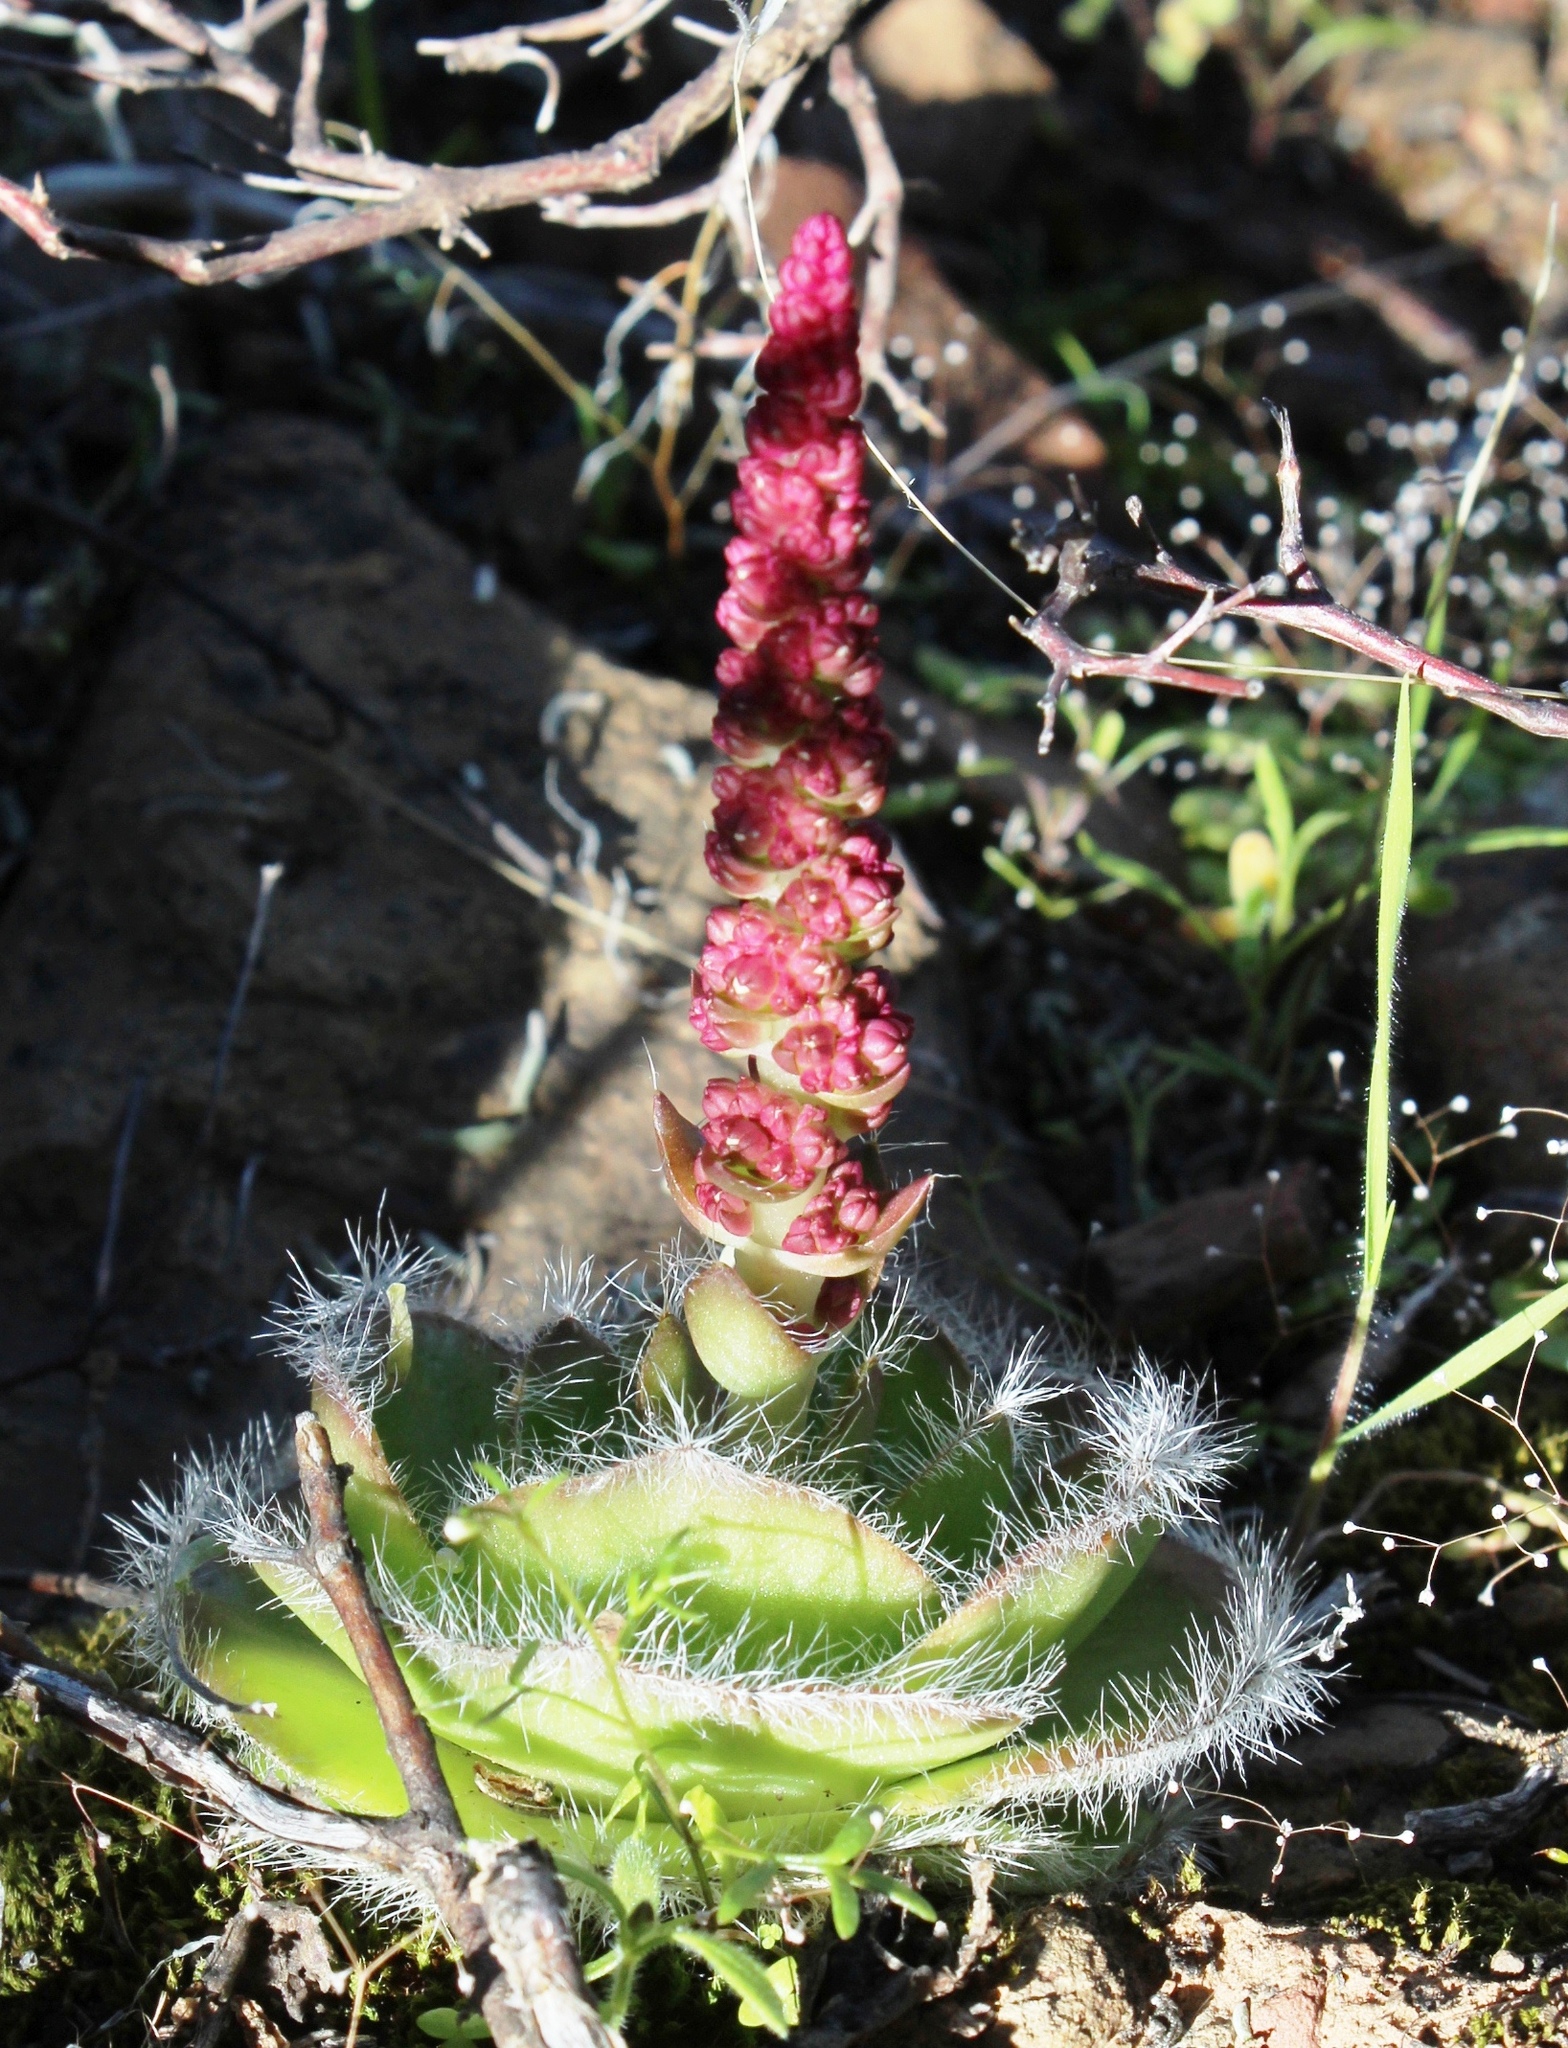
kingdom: Plantae
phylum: Tracheophyta
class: Magnoliopsida
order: Saxifragales
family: Crassulaceae
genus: Crassula
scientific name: Crassula barbata
